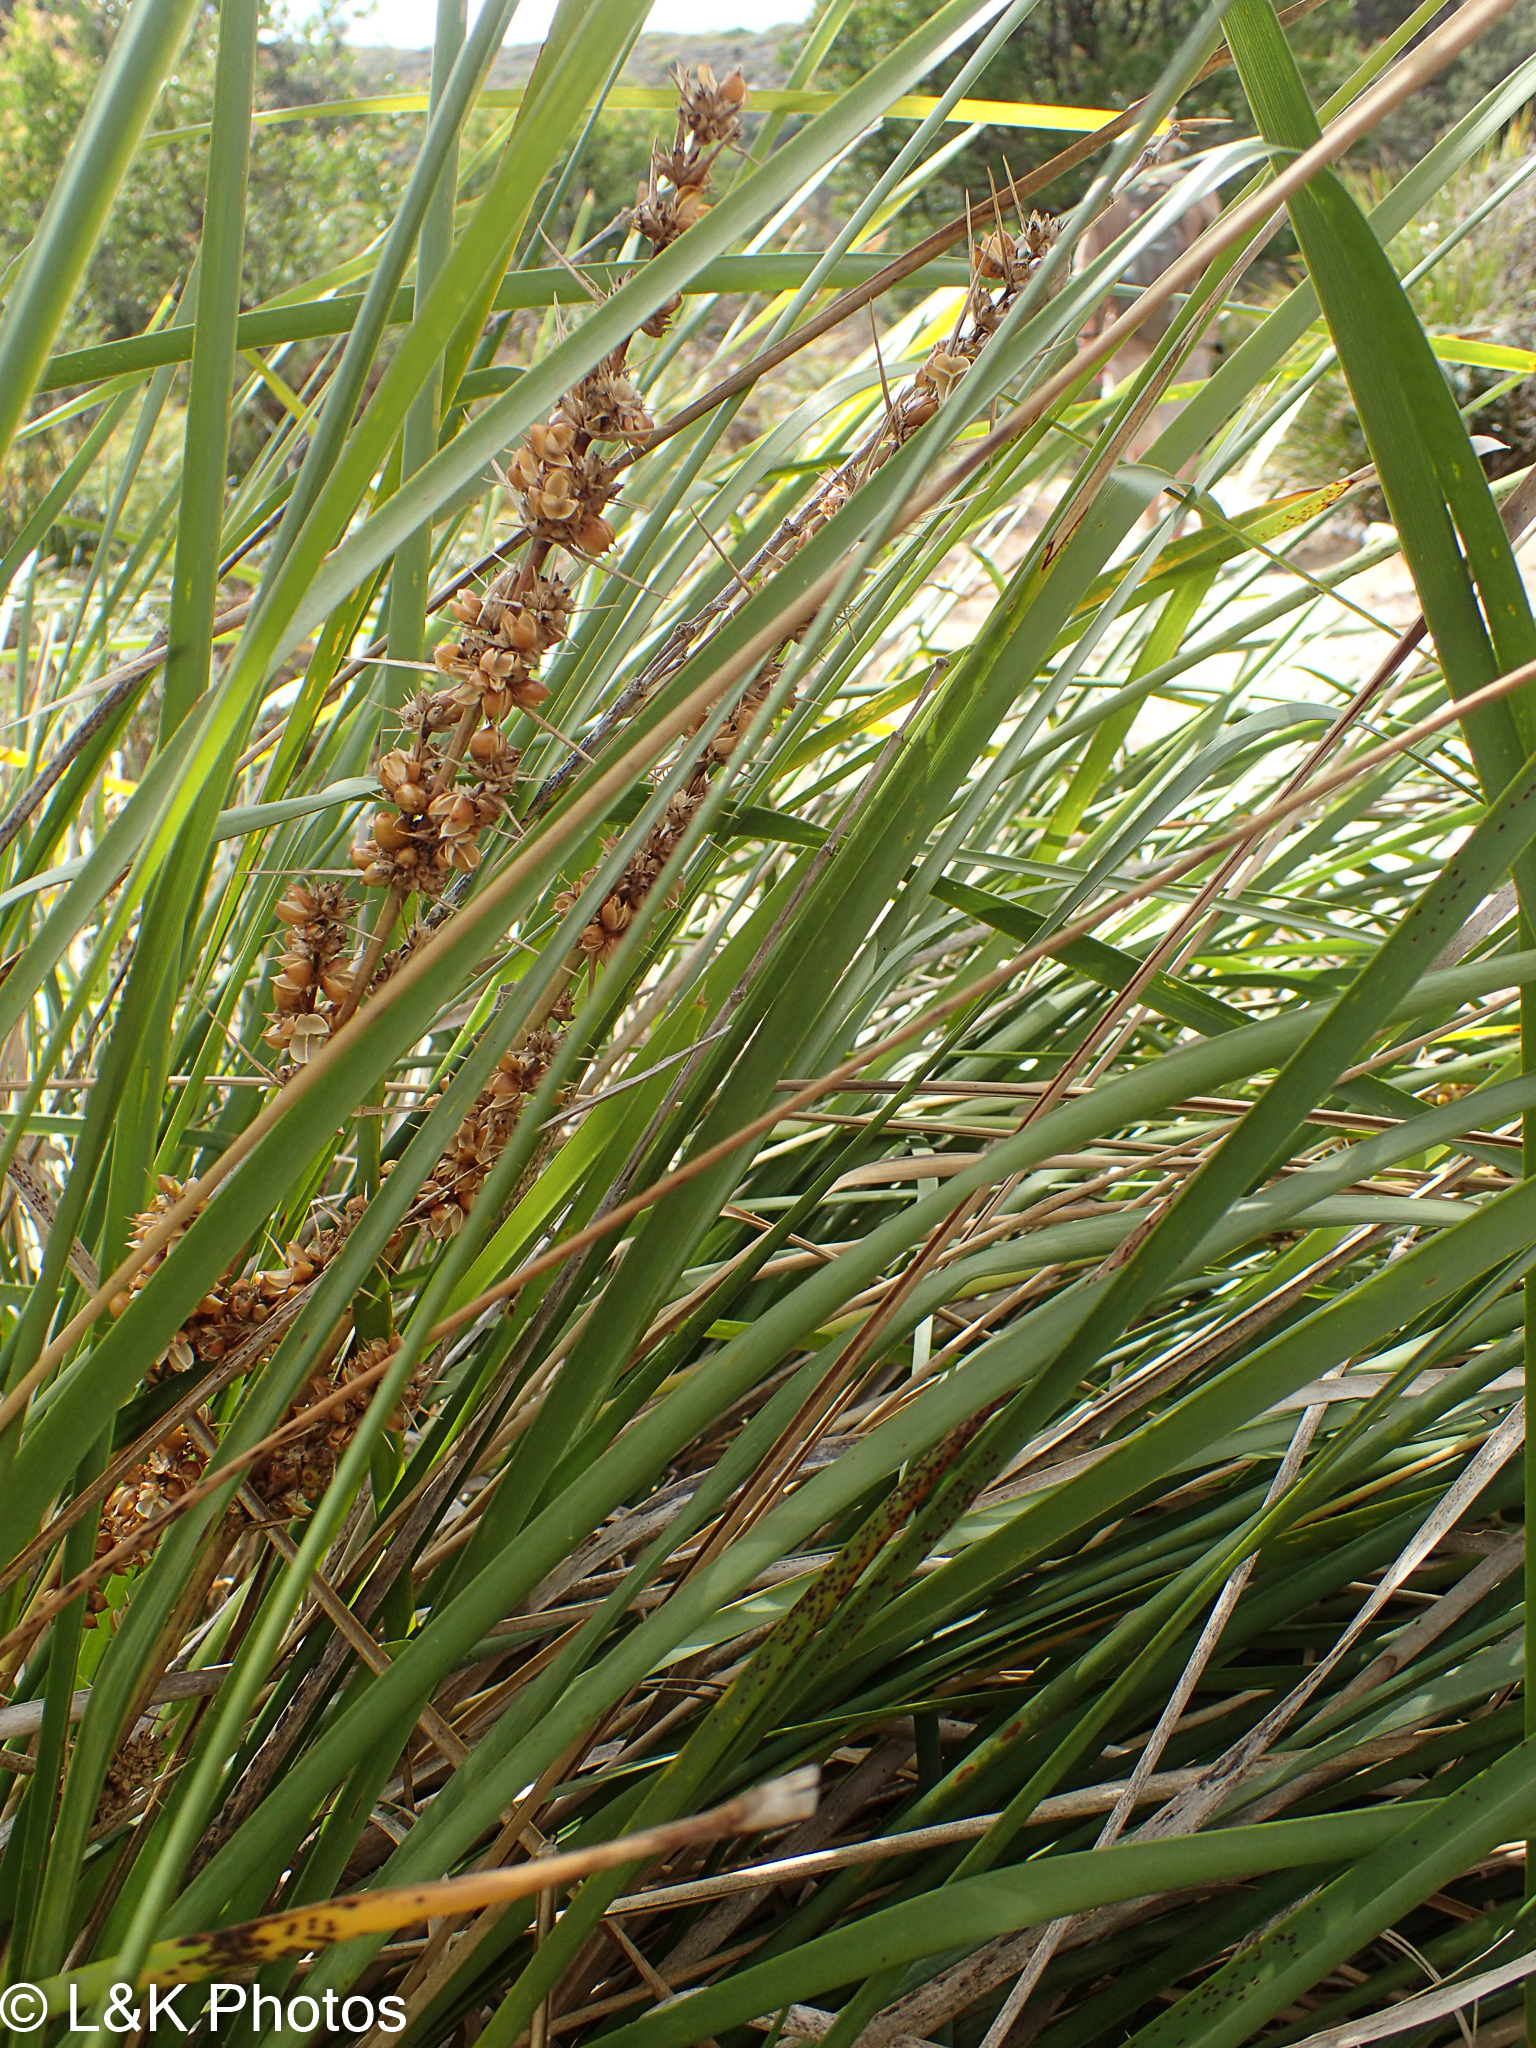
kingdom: Plantae
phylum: Tracheophyta
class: Liliopsida
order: Asparagales
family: Asparagaceae
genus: Lomandra
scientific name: Lomandra longifolia
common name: Longleaf mat-rush
